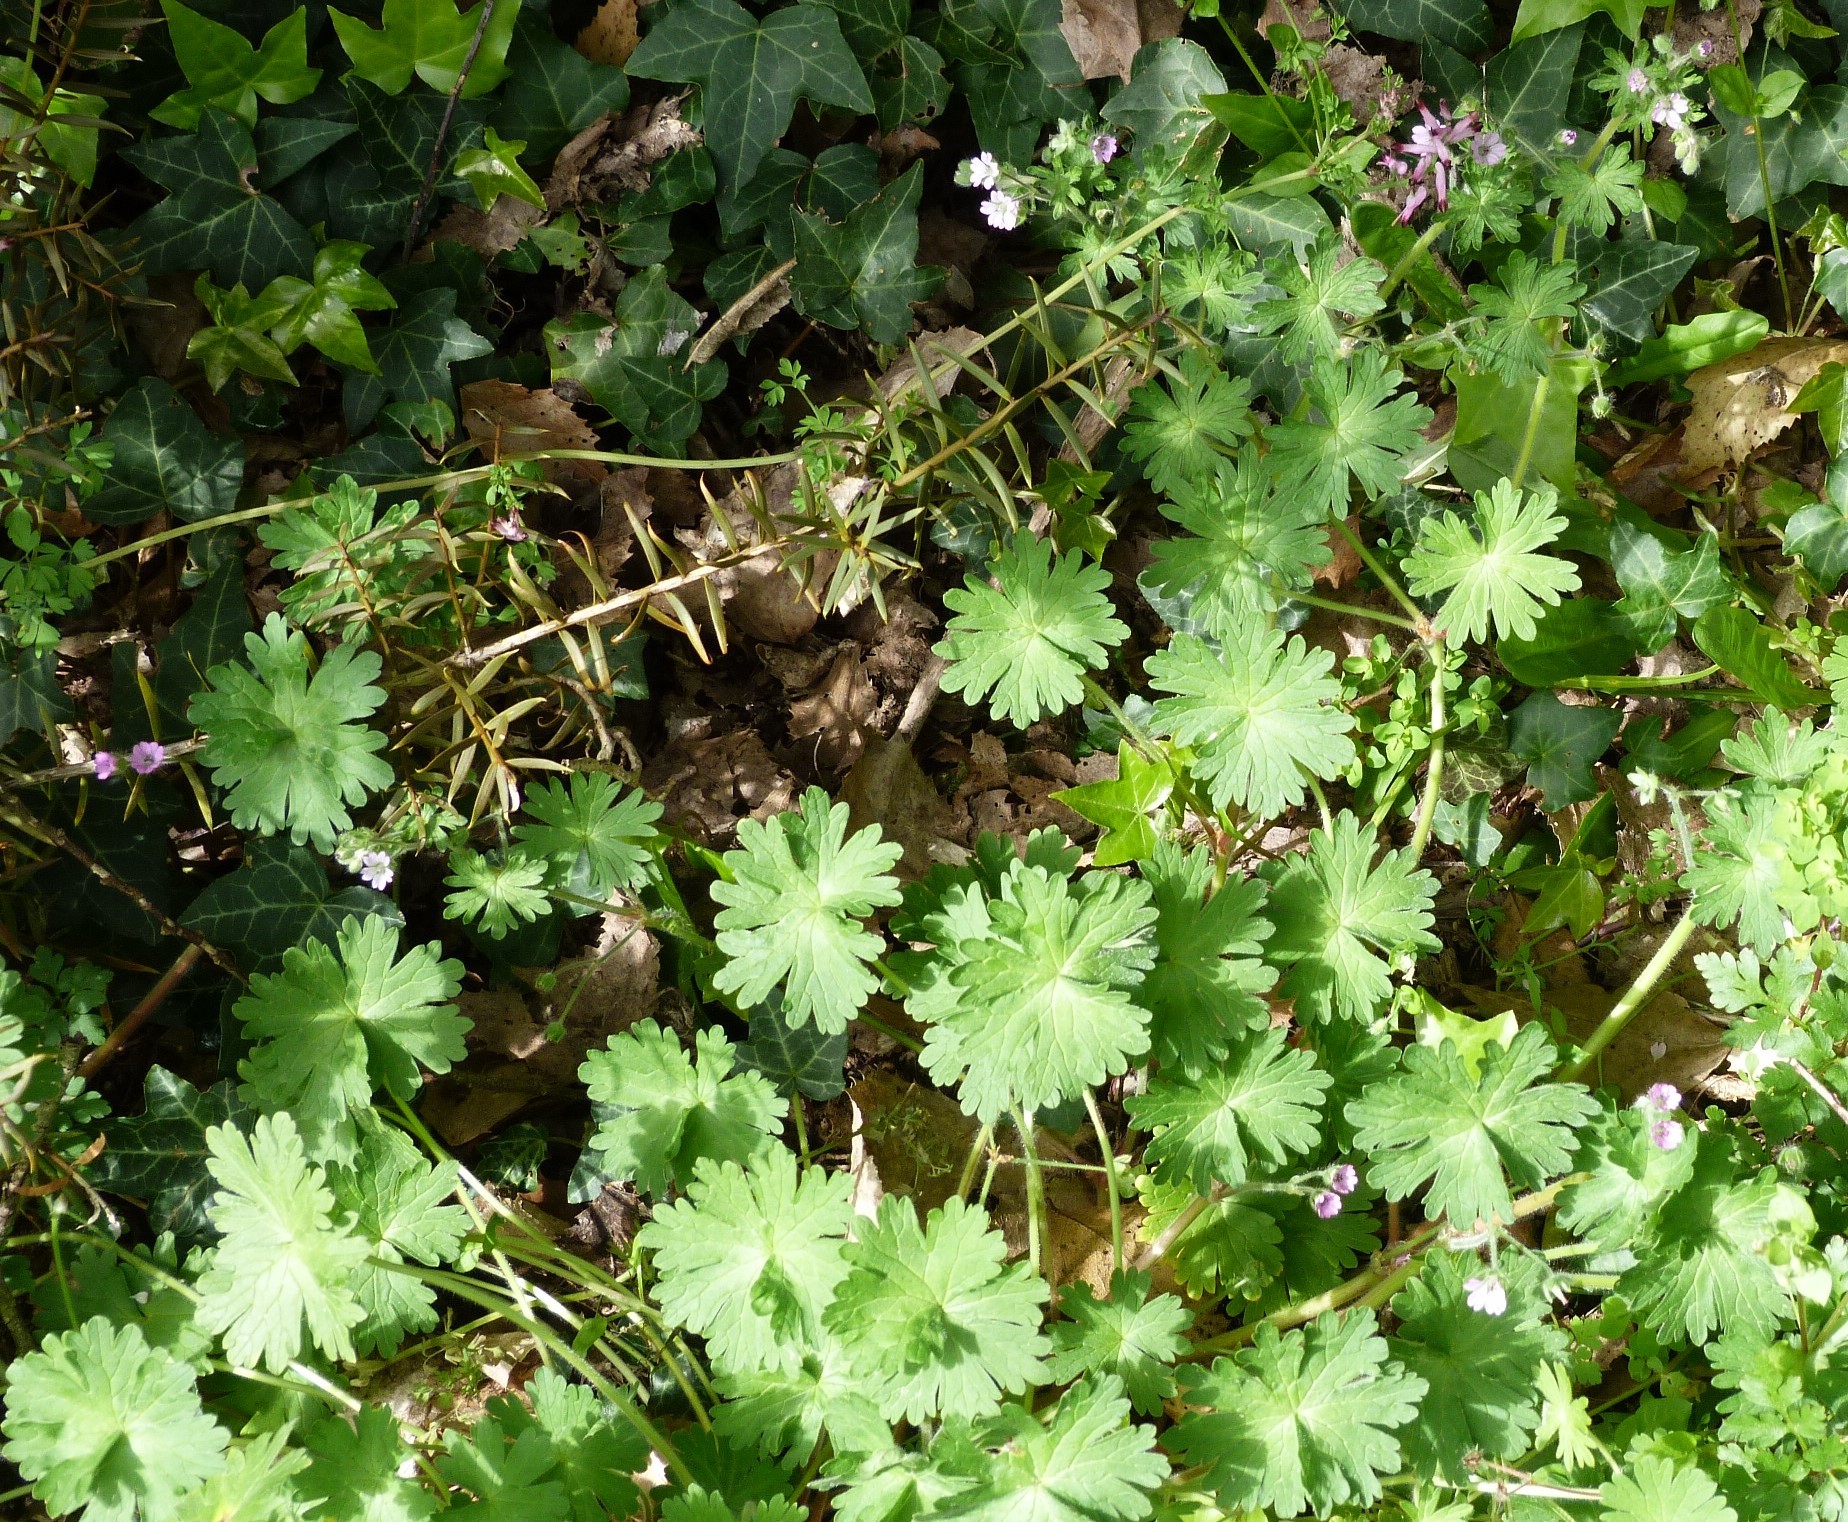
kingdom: Plantae
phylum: Tracheophyta
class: Magnoliopsida
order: Geraniales
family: Geraniaceae
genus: Geranium
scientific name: Geranium molle
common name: Dove's-foot crane's-bill
